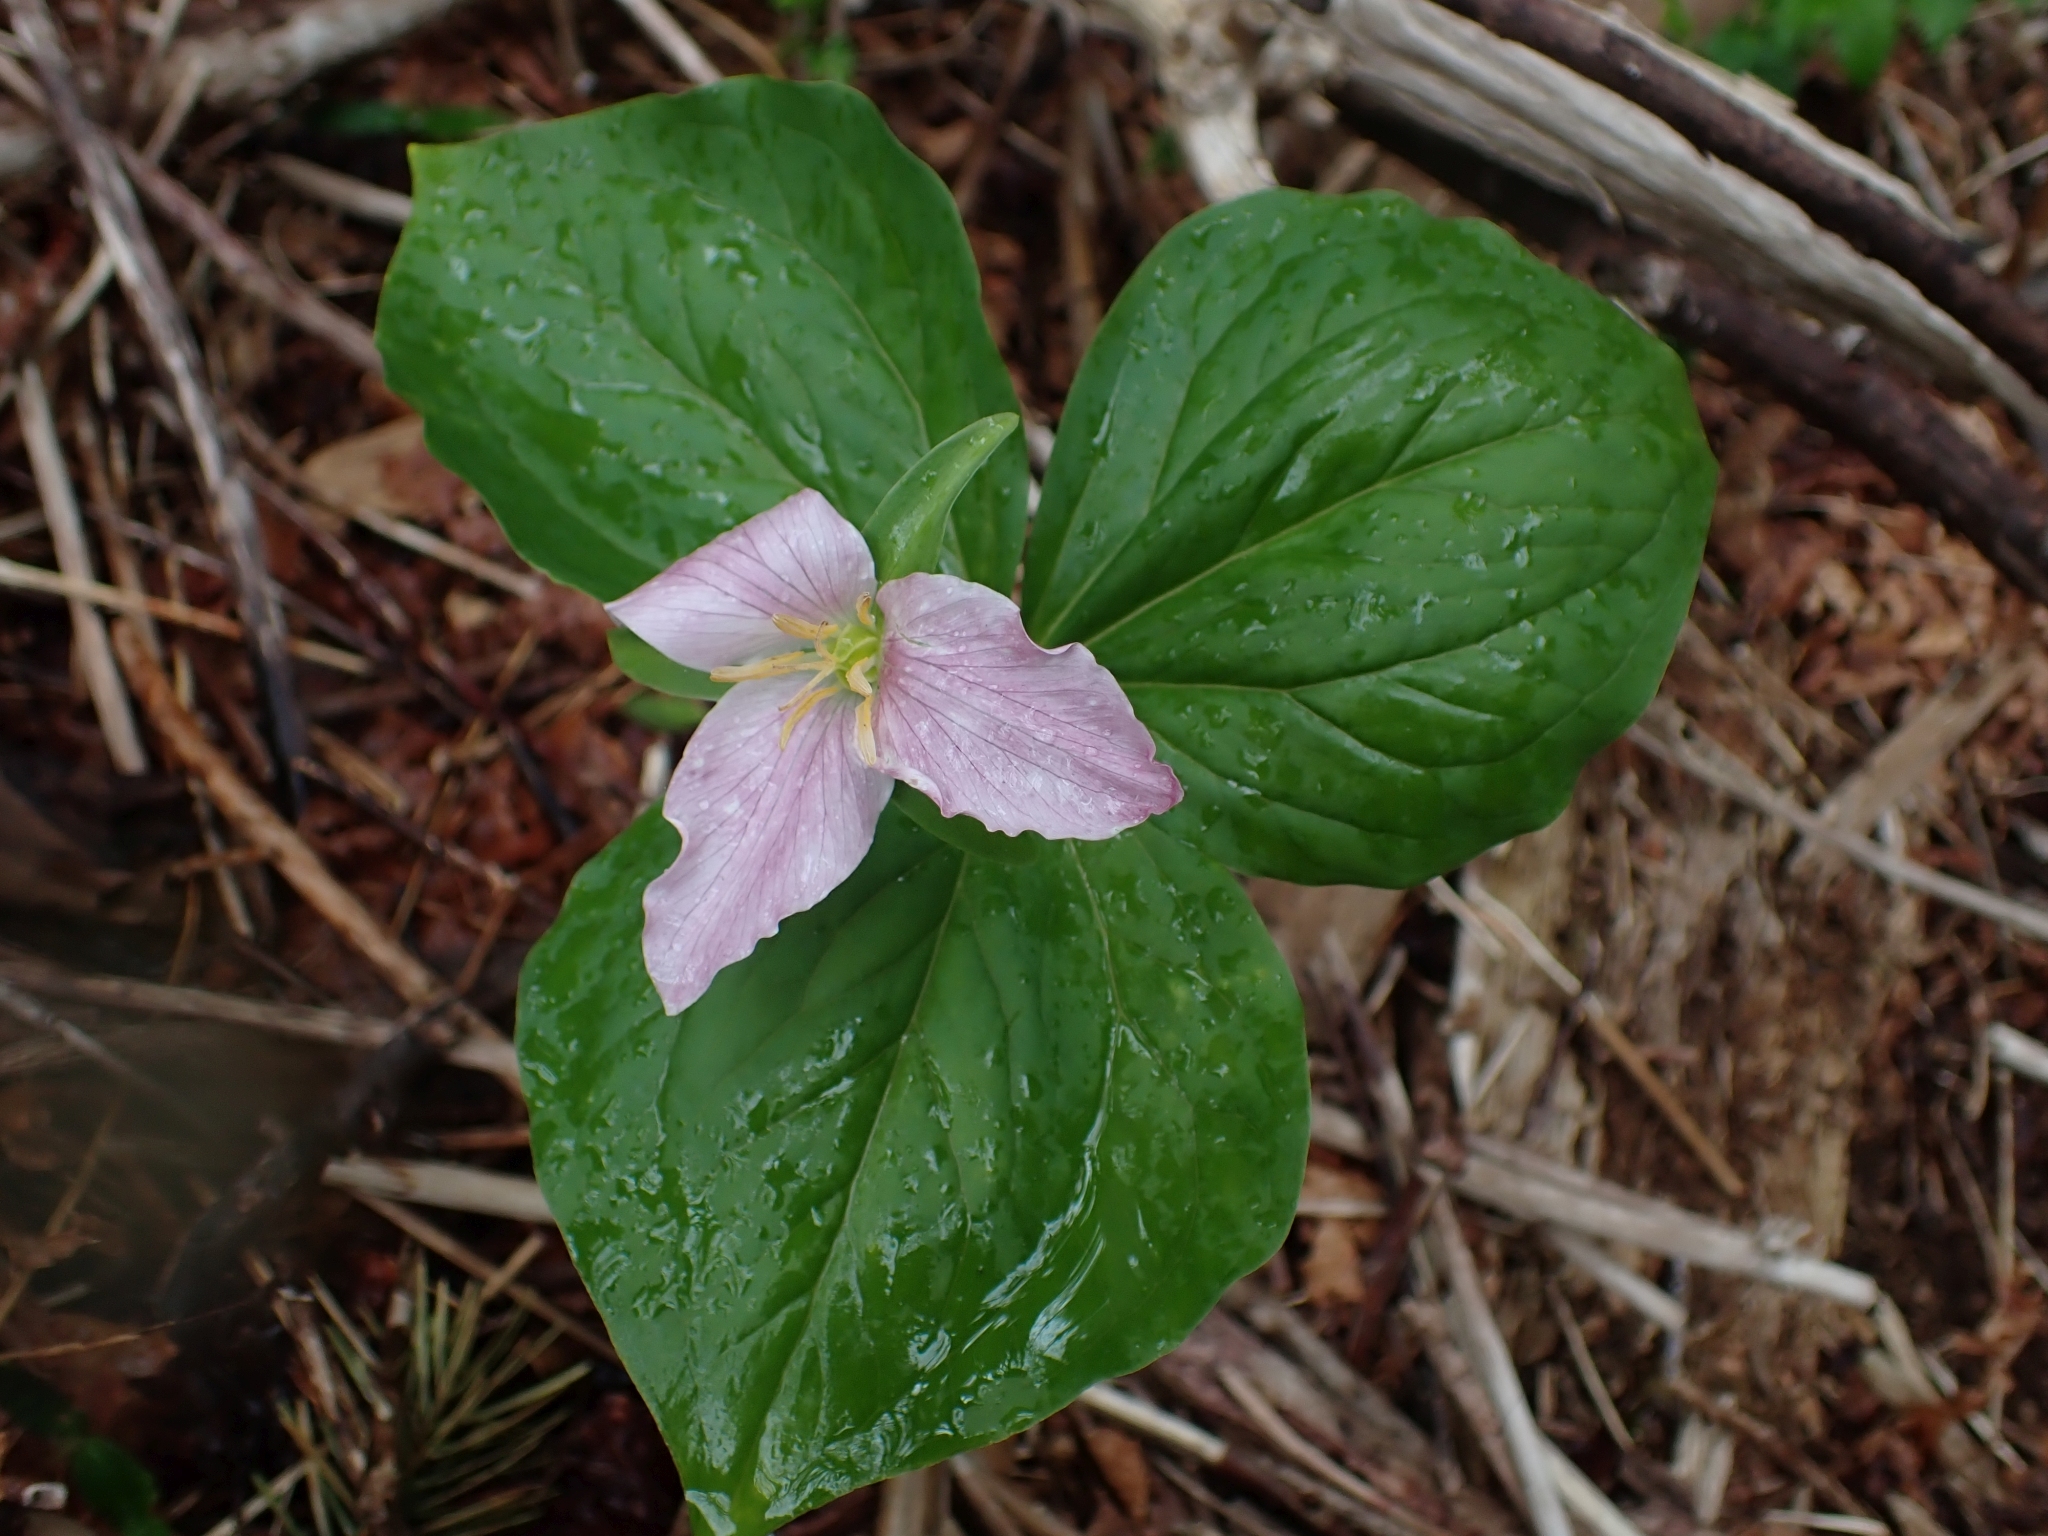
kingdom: Plantae
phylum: Tracheophyta
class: Liliopsida
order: Liliales
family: Melanthiaceae
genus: Trillium
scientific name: Trillium ovatum
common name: Pacific trillium
